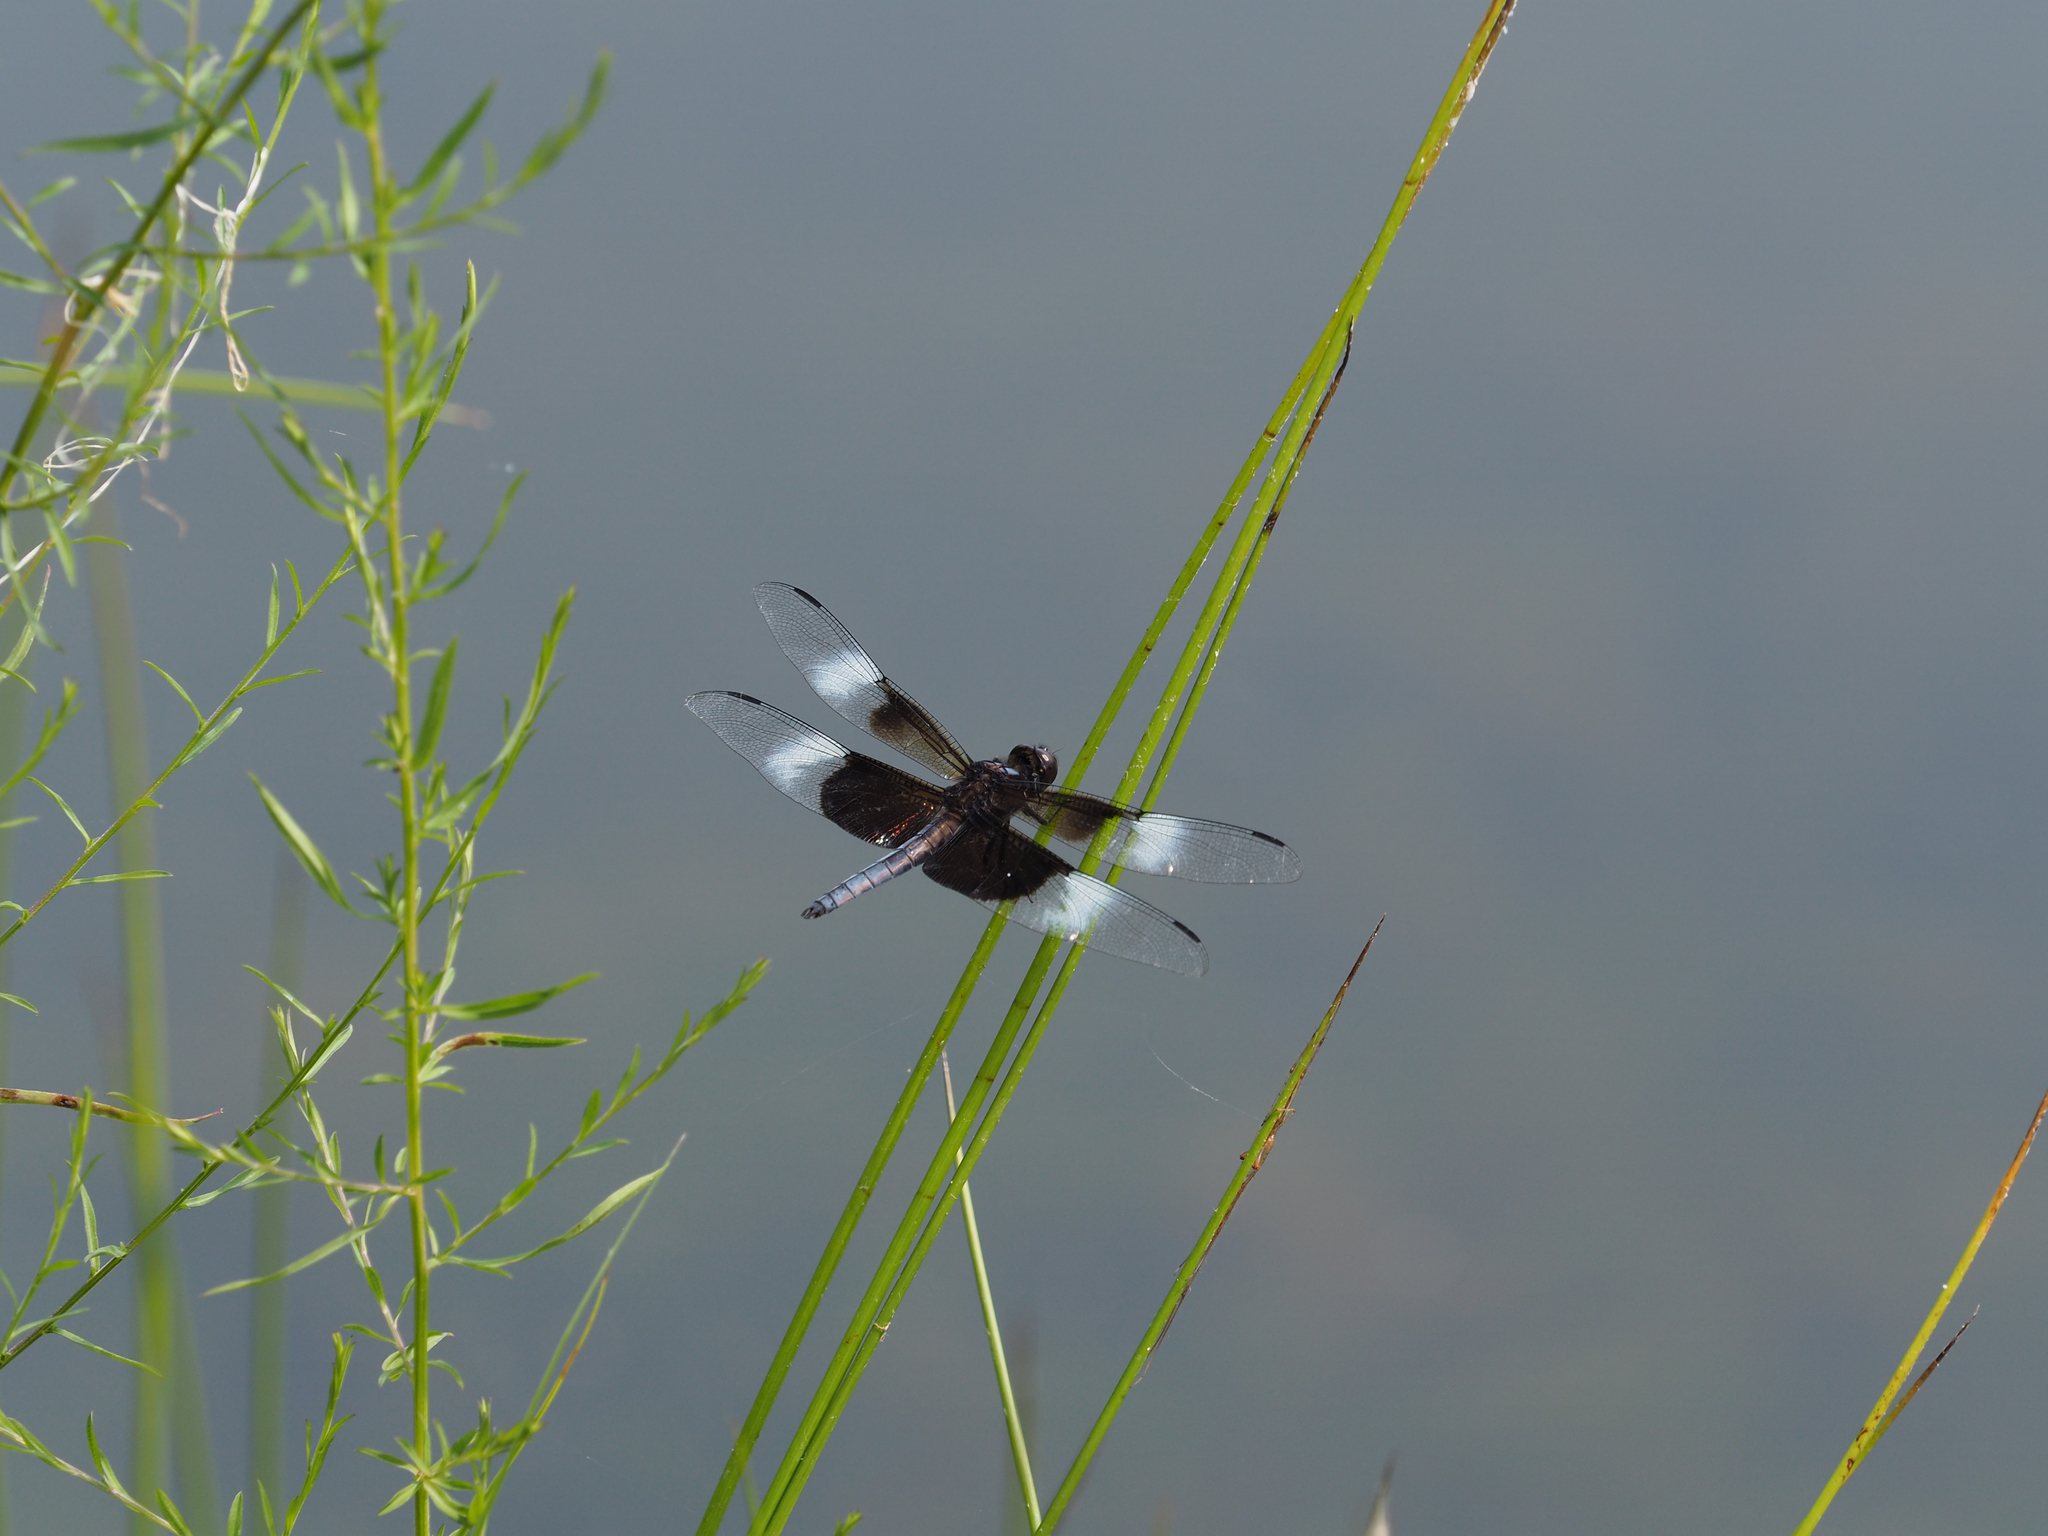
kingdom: Animalia
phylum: Arthropoda
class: Insecta
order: Odonata
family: Libellulidae
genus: Libellula
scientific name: Libellula luctuosa
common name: Widow skimmer
